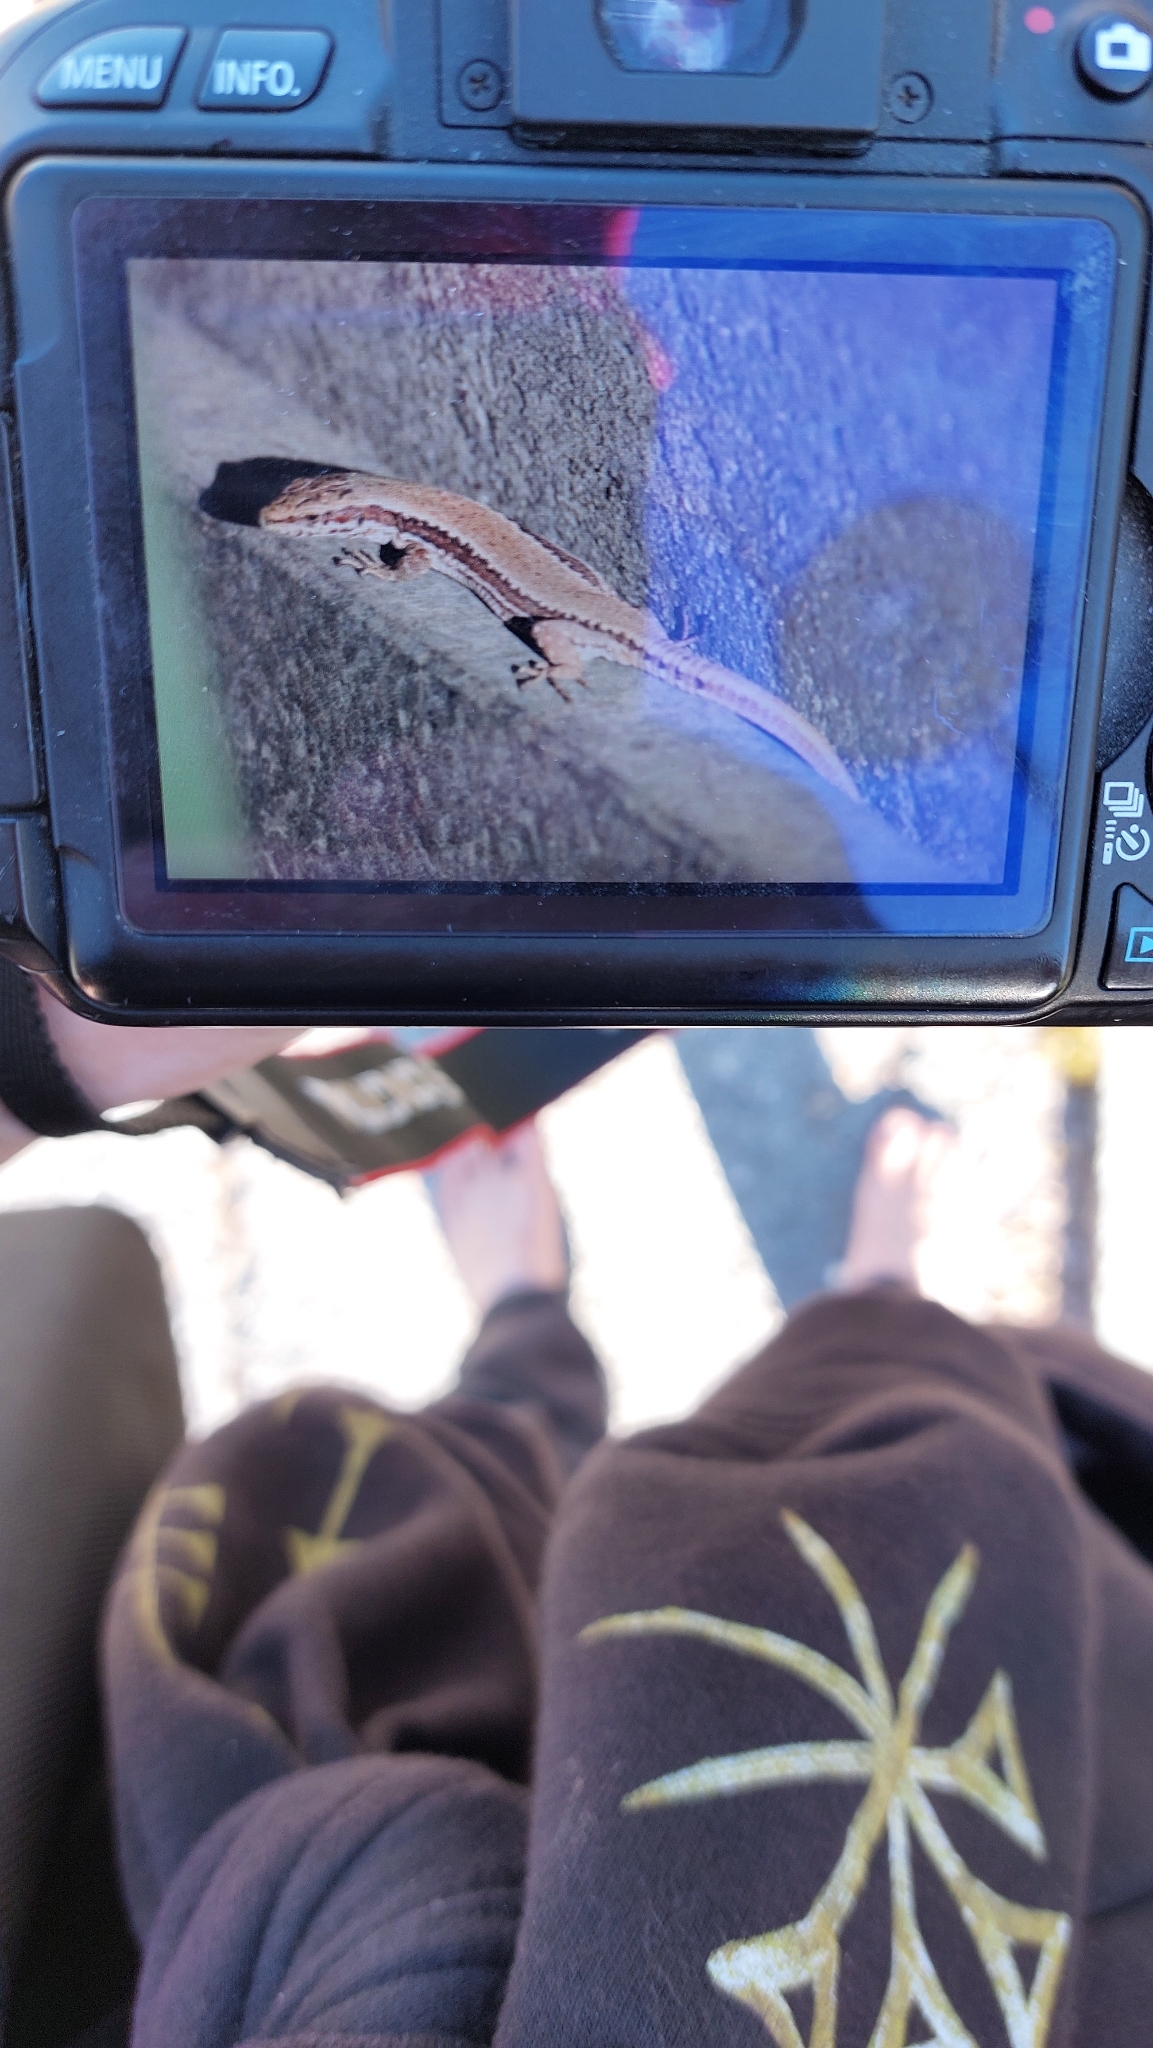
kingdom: Animalia
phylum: Chordata
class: Squamata
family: Lacertidae
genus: Podarcis
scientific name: Podarcis muralis
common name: Common wall lizard
